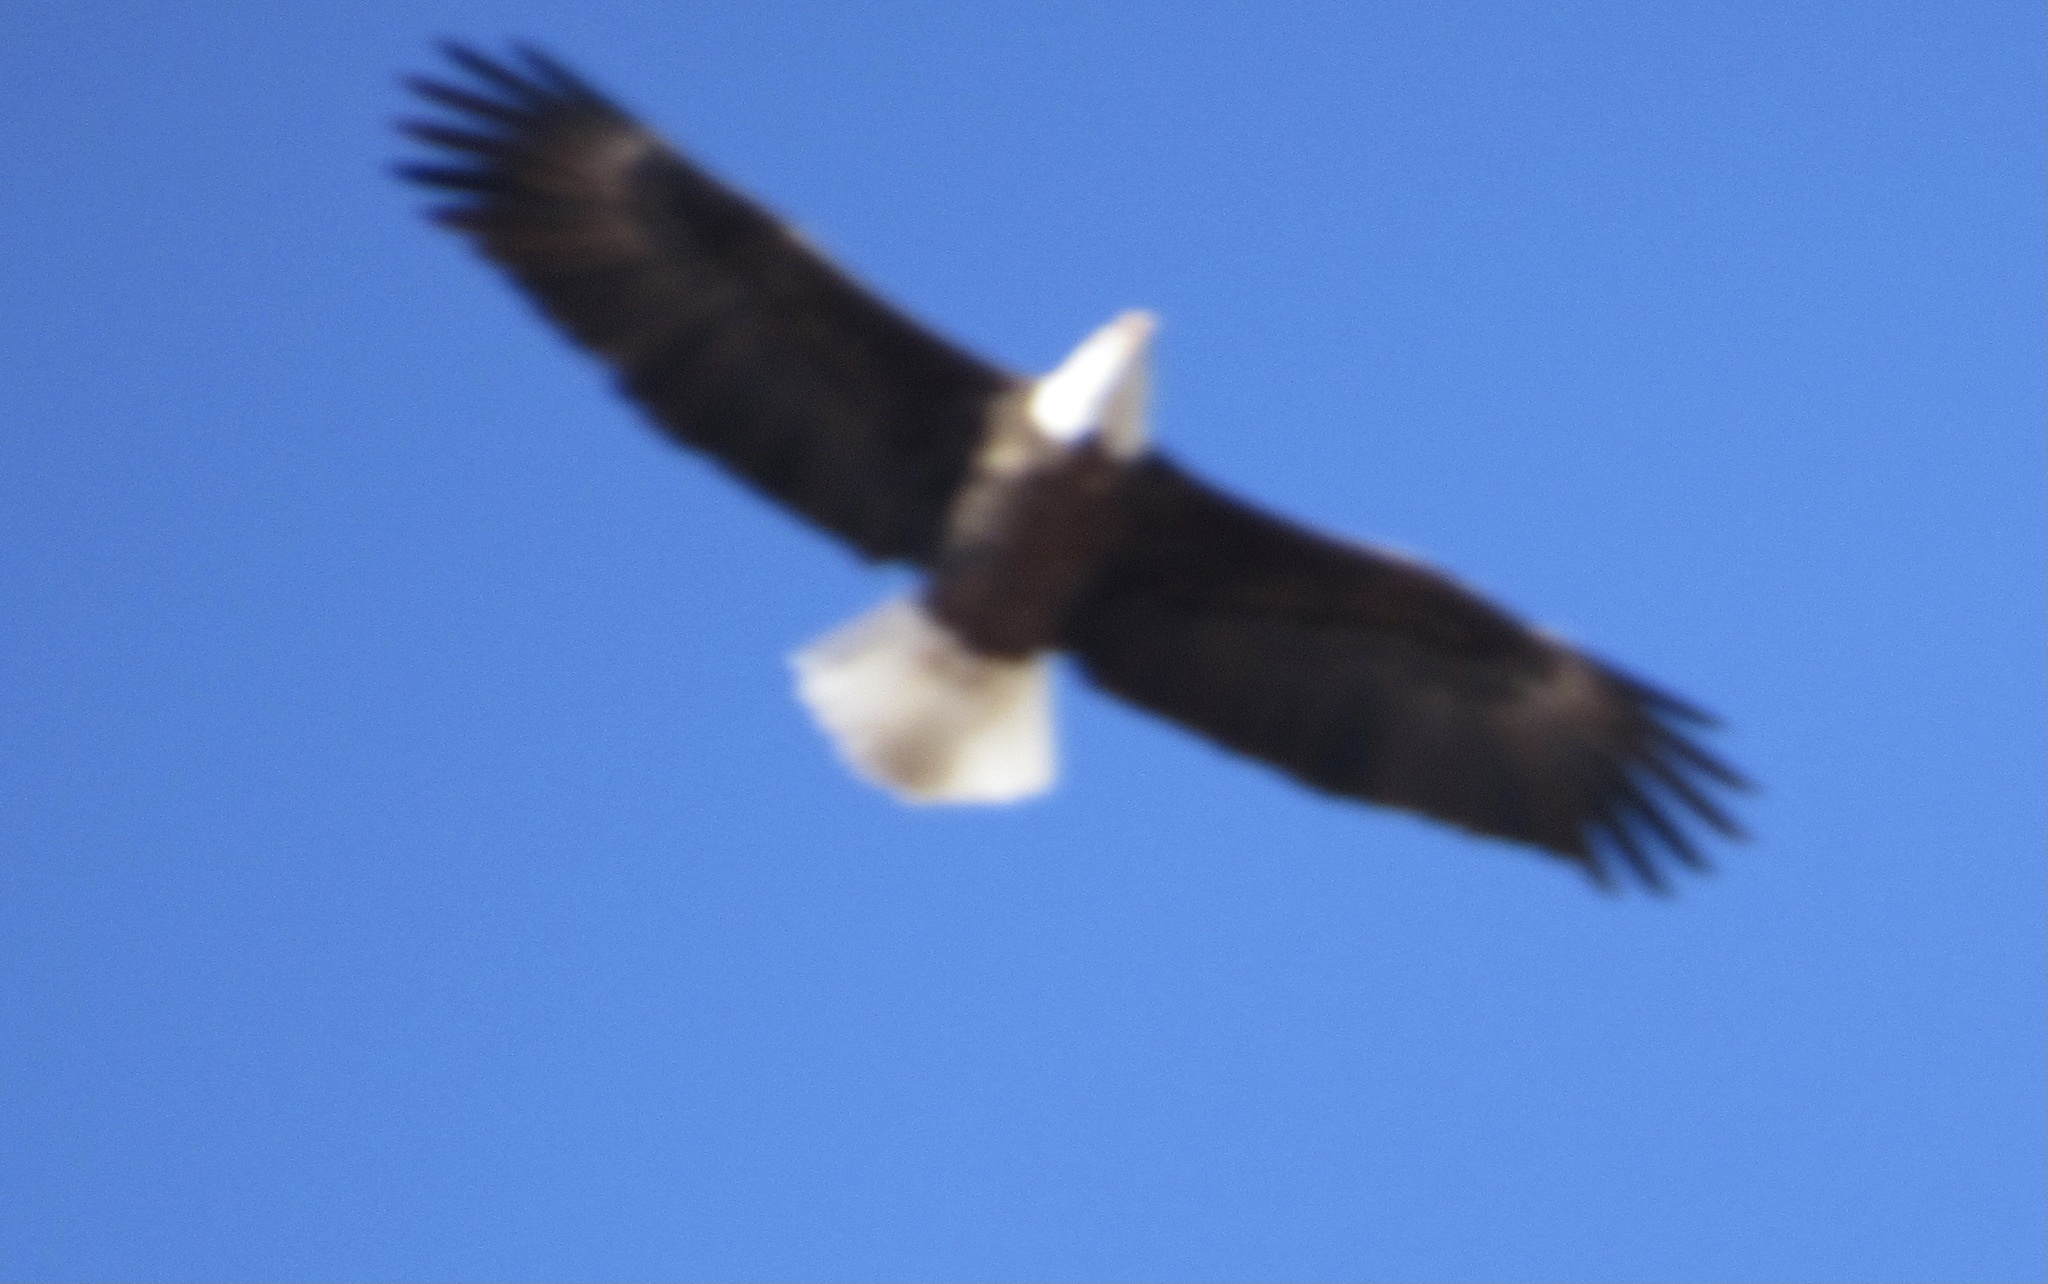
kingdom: Animalia
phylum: Chordata
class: Aves
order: Accipitriformes
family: Accipitridae
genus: Haliaeetus
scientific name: Haliaeetus leucocephalus
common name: Bald eagle
